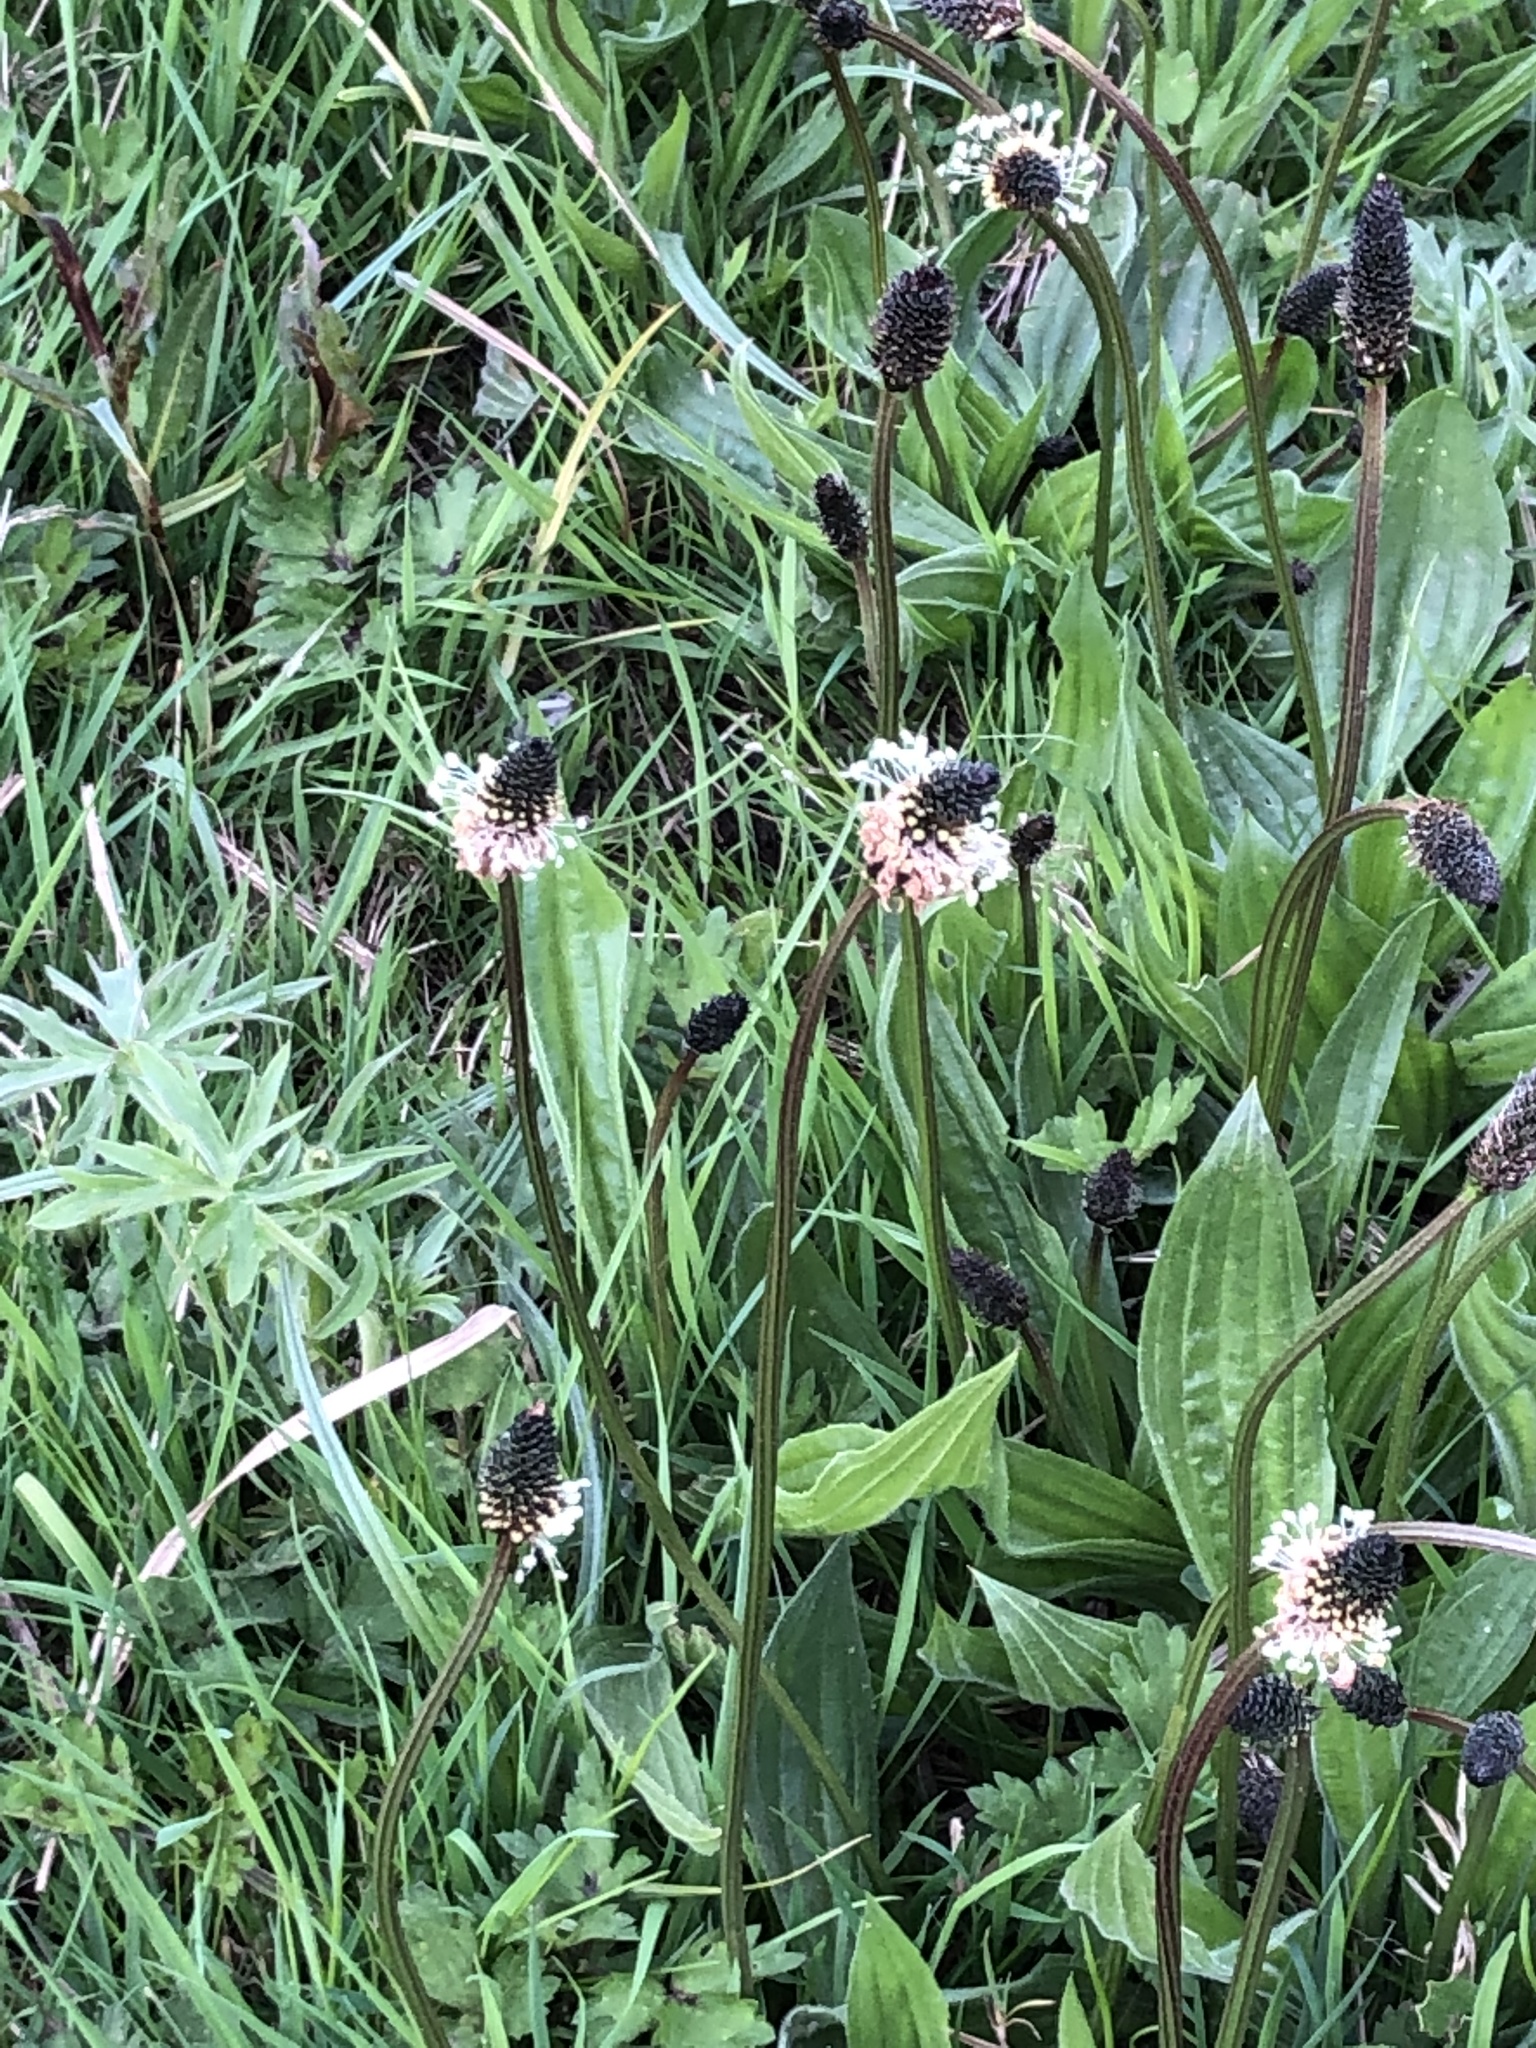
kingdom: Plantae
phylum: Tracheophyta
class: Magnoliopsida
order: Lamiales
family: Plantaginaceae
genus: Plantago
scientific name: Plantago lanceolata
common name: Ribwort plantain
